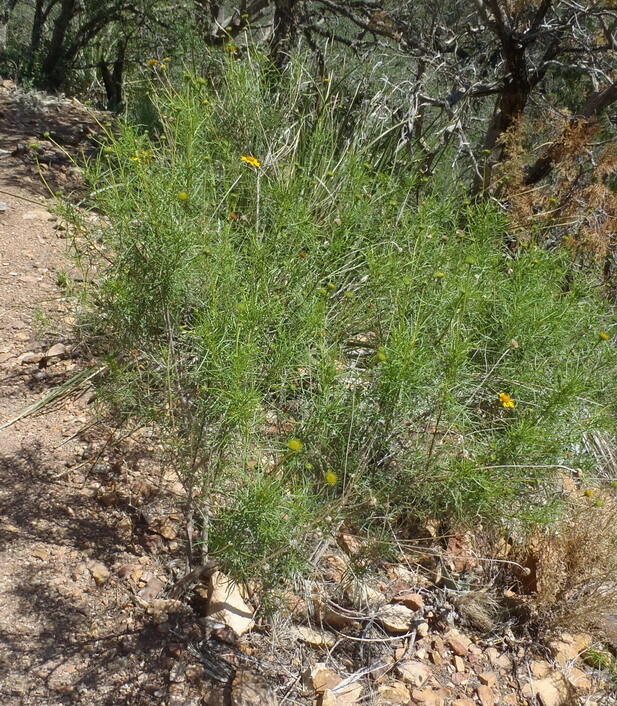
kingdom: Plantae
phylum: Tracheophyta
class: Magnoliopsida
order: Asterales
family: Asteraceae
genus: Sidneya
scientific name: Sidneya tenuifolia
